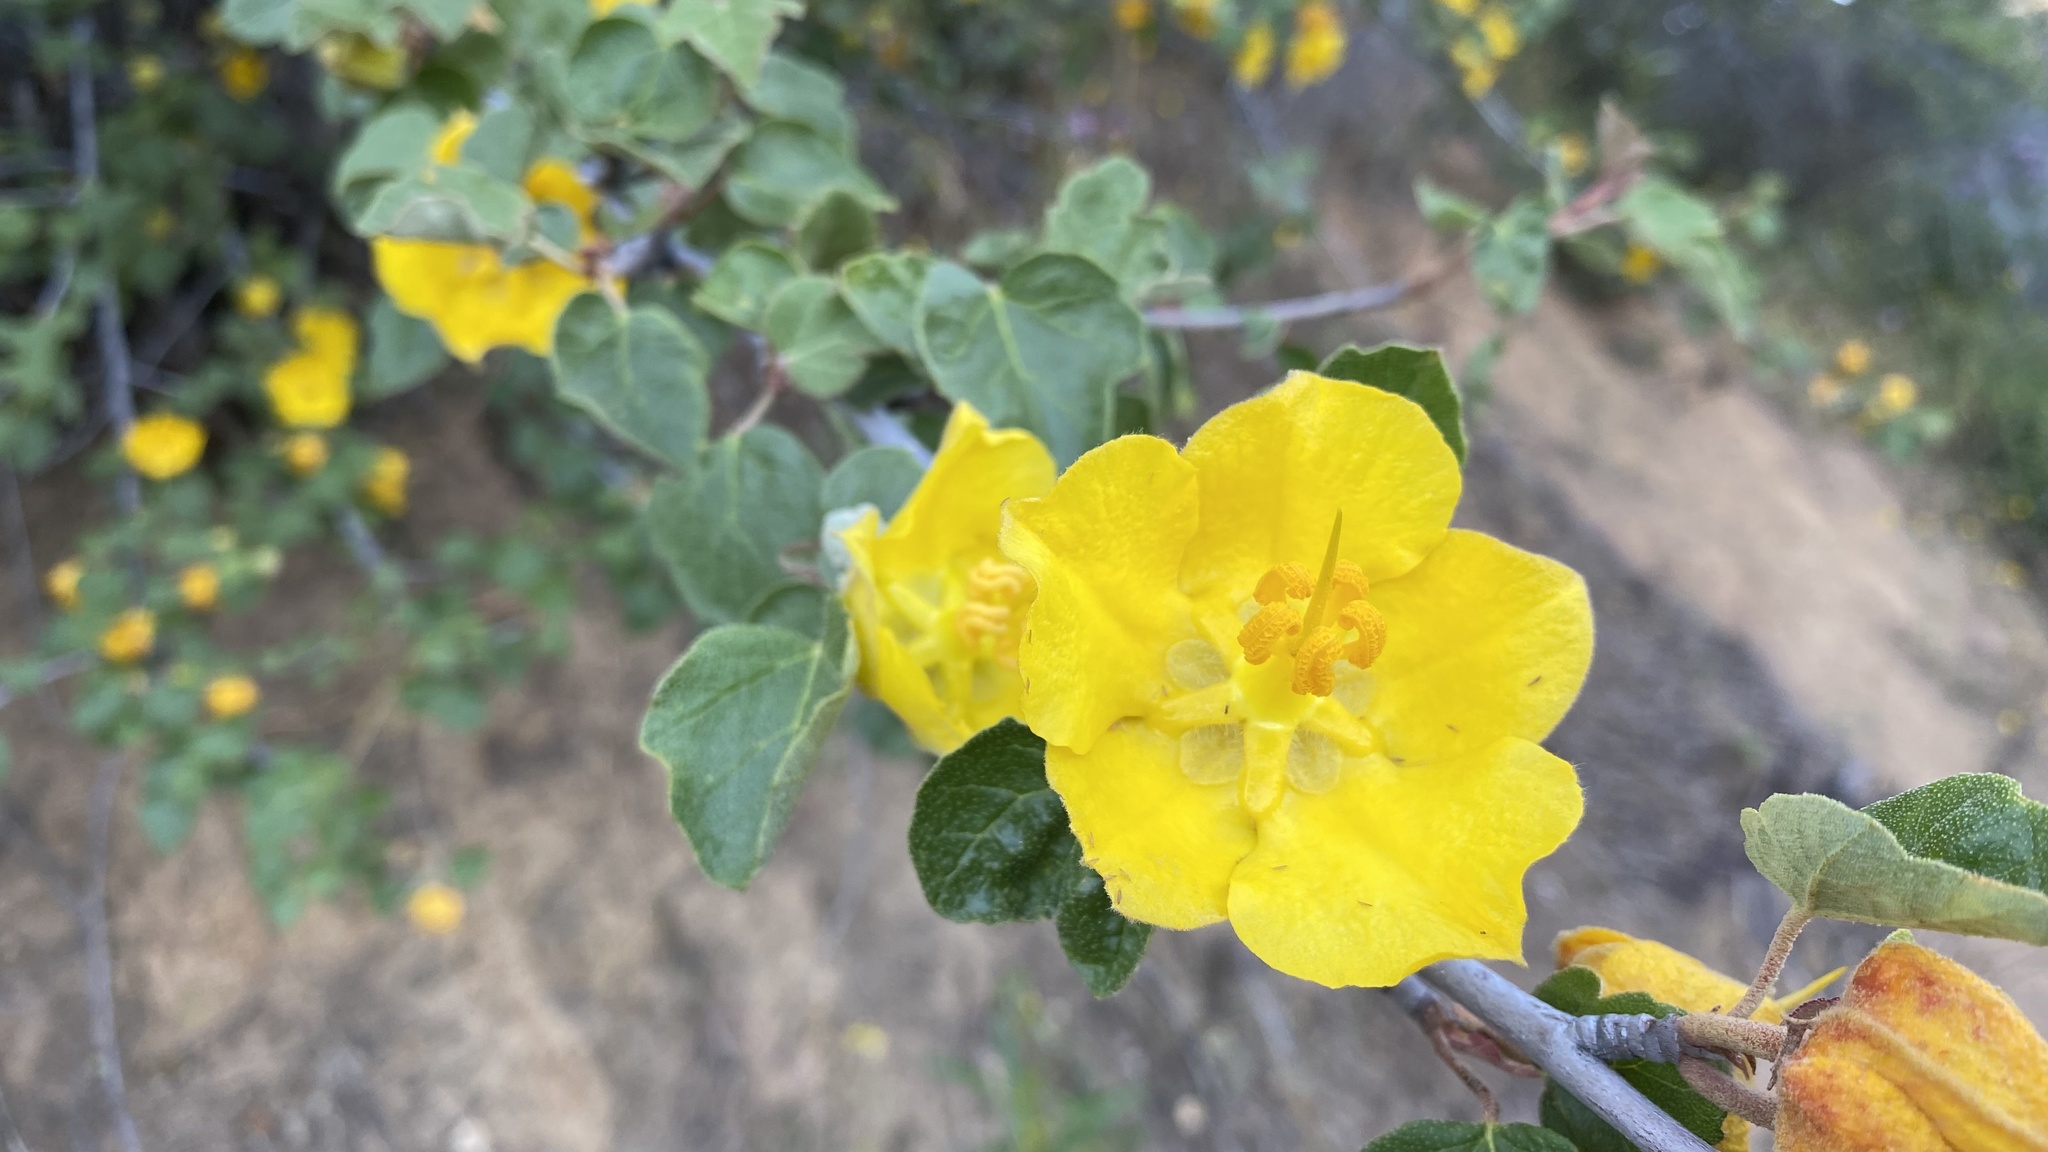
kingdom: Plantae
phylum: Tracheophyta
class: Magnoliopsida
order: Malvales
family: Malvaceae
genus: Fremontodendron
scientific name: Fremontodendron californicum
